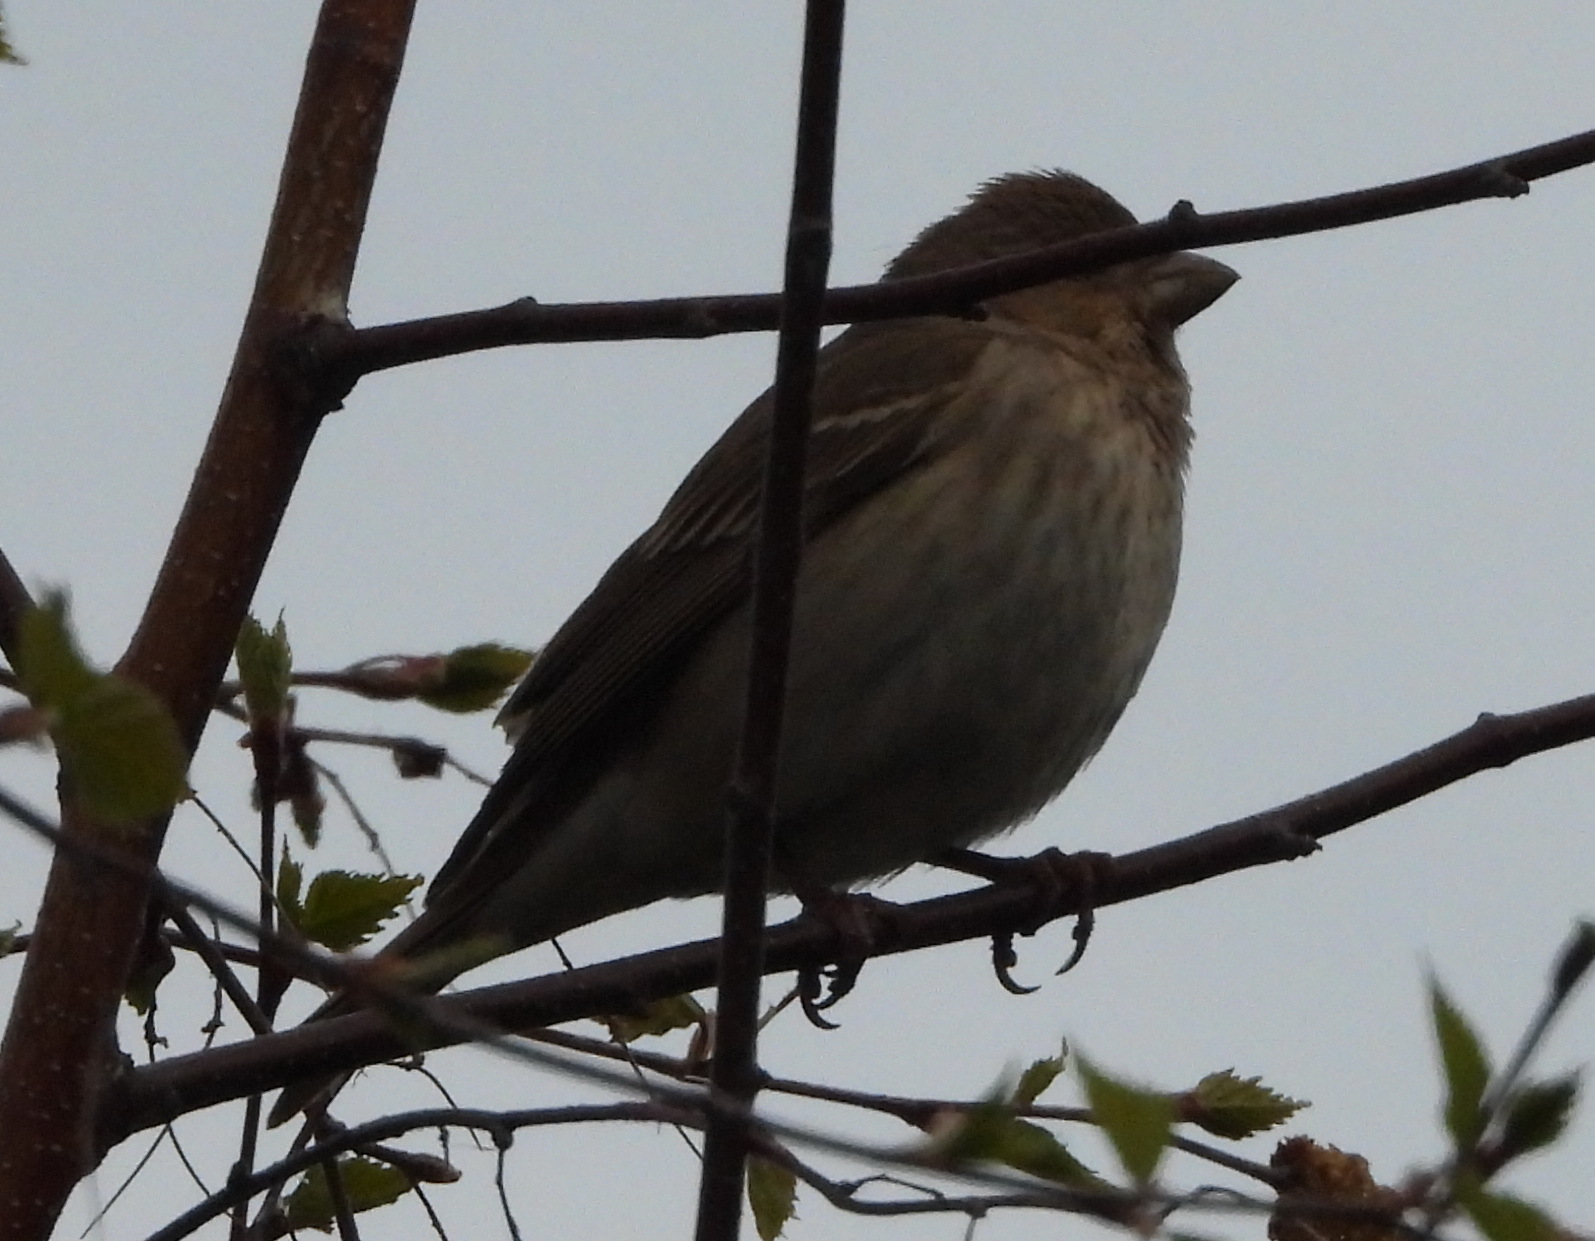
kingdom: Animalia
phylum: Chordata
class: Aves
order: Passeriformes
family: Fringillidae
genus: Carpodacus
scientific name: Carpodacus erythrinus
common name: Common rosefinch
